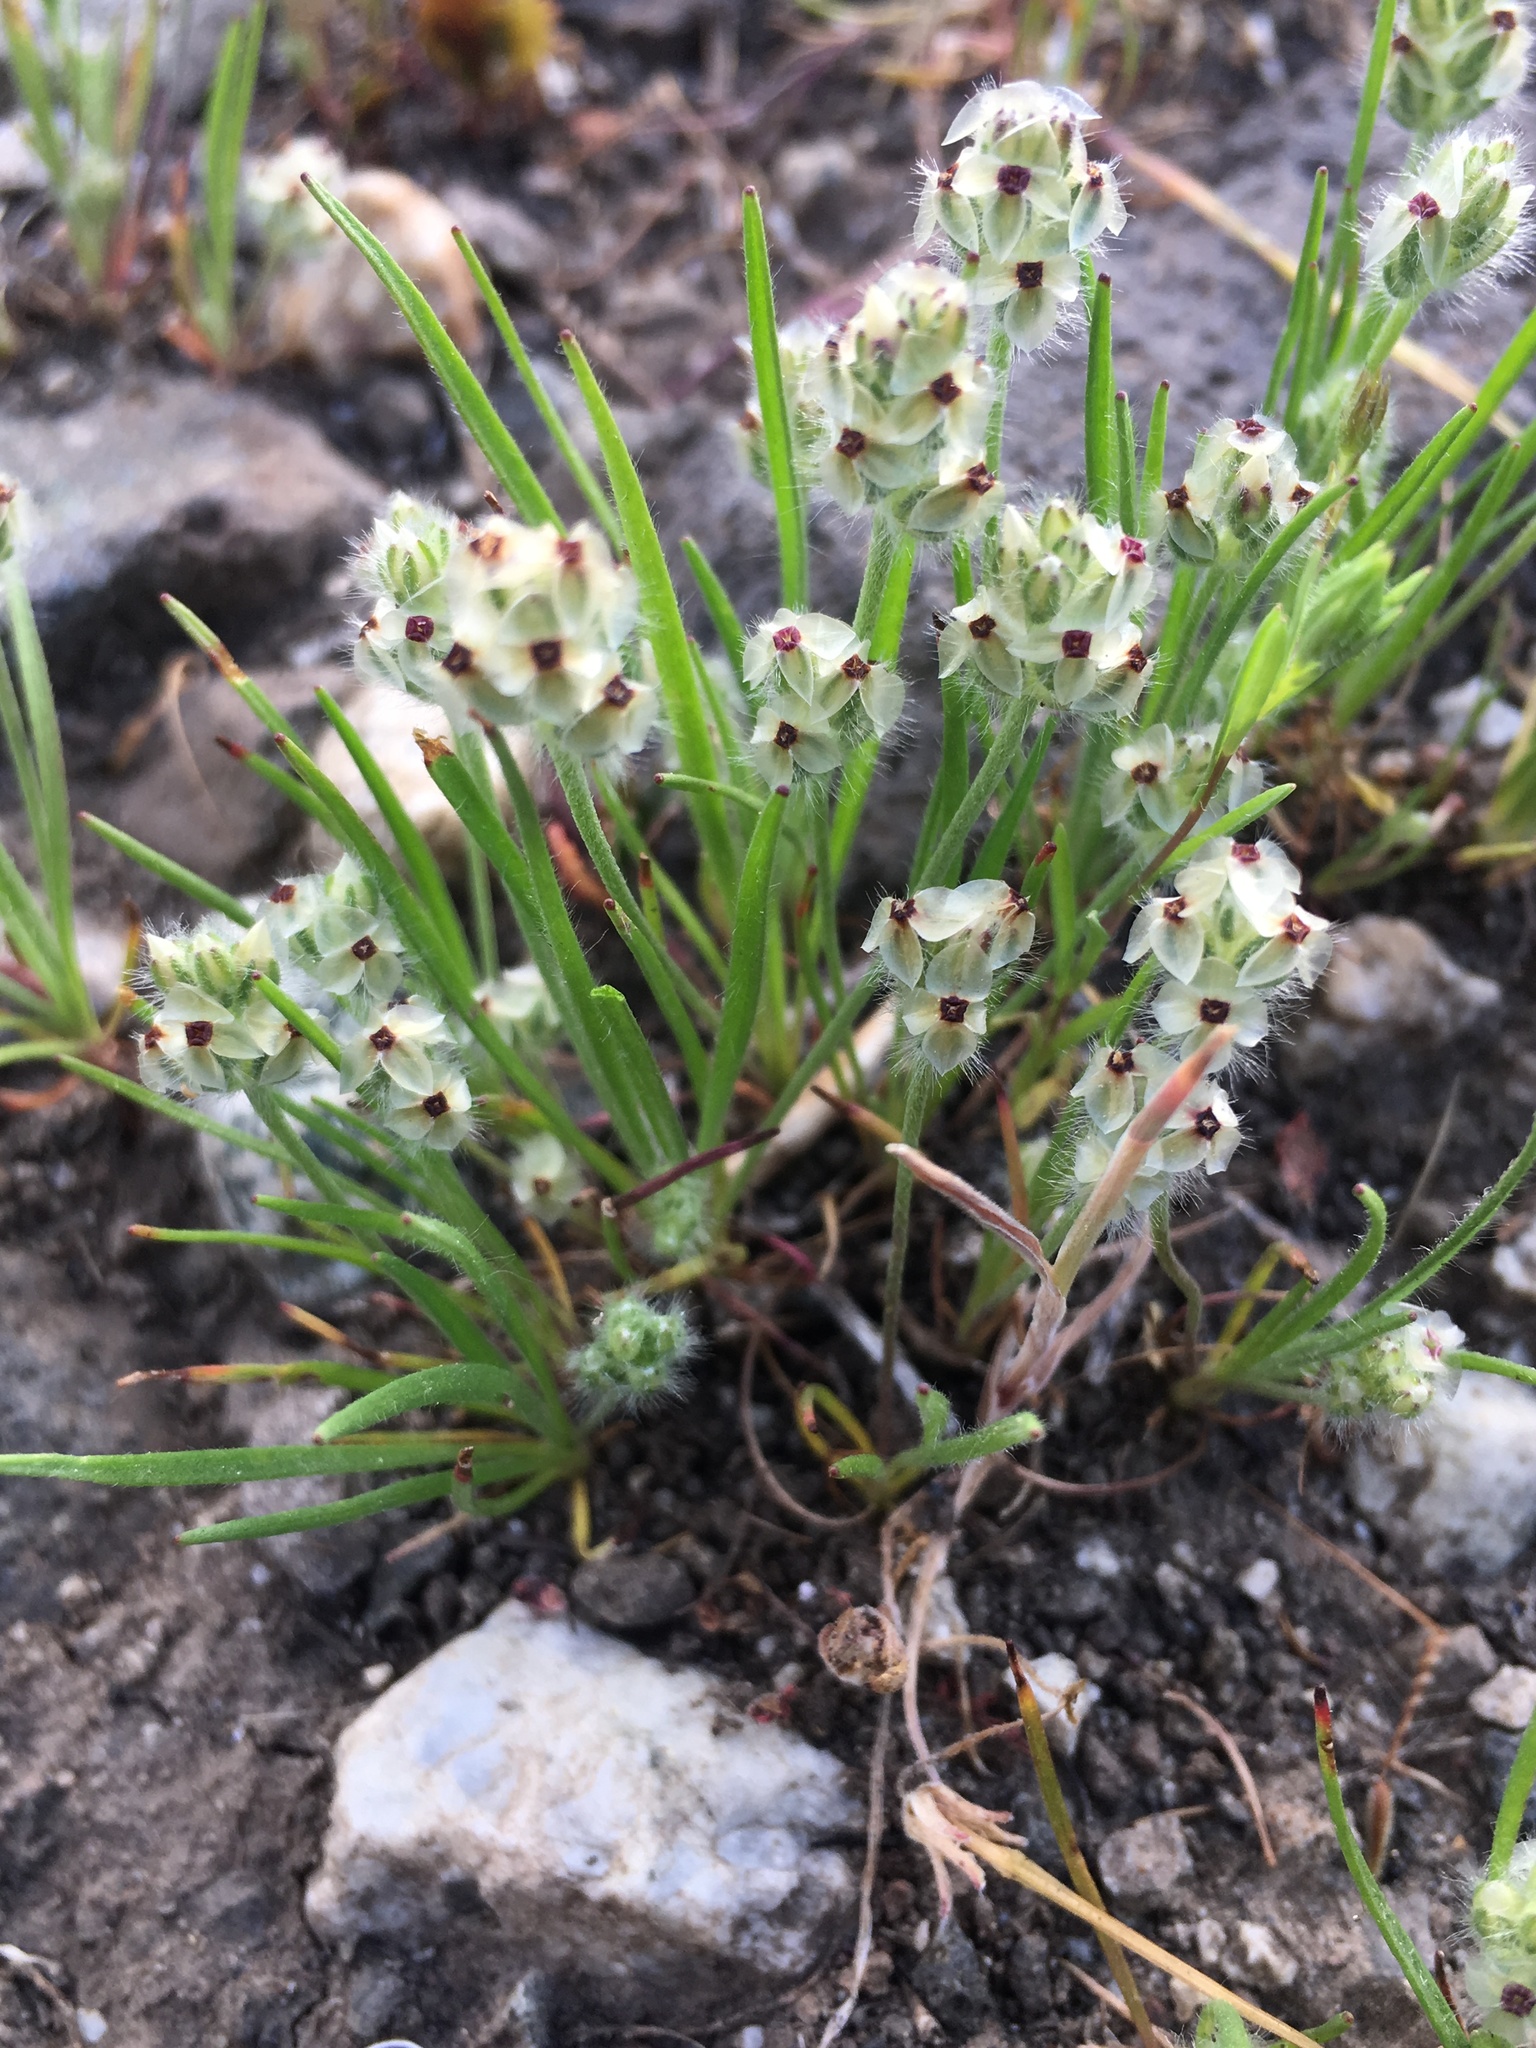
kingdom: Plantae
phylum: Tracheophyta
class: Magnoliopsida
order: Lamiales
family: Plantaginaceae
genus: Plantago
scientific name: Plantago erecta
